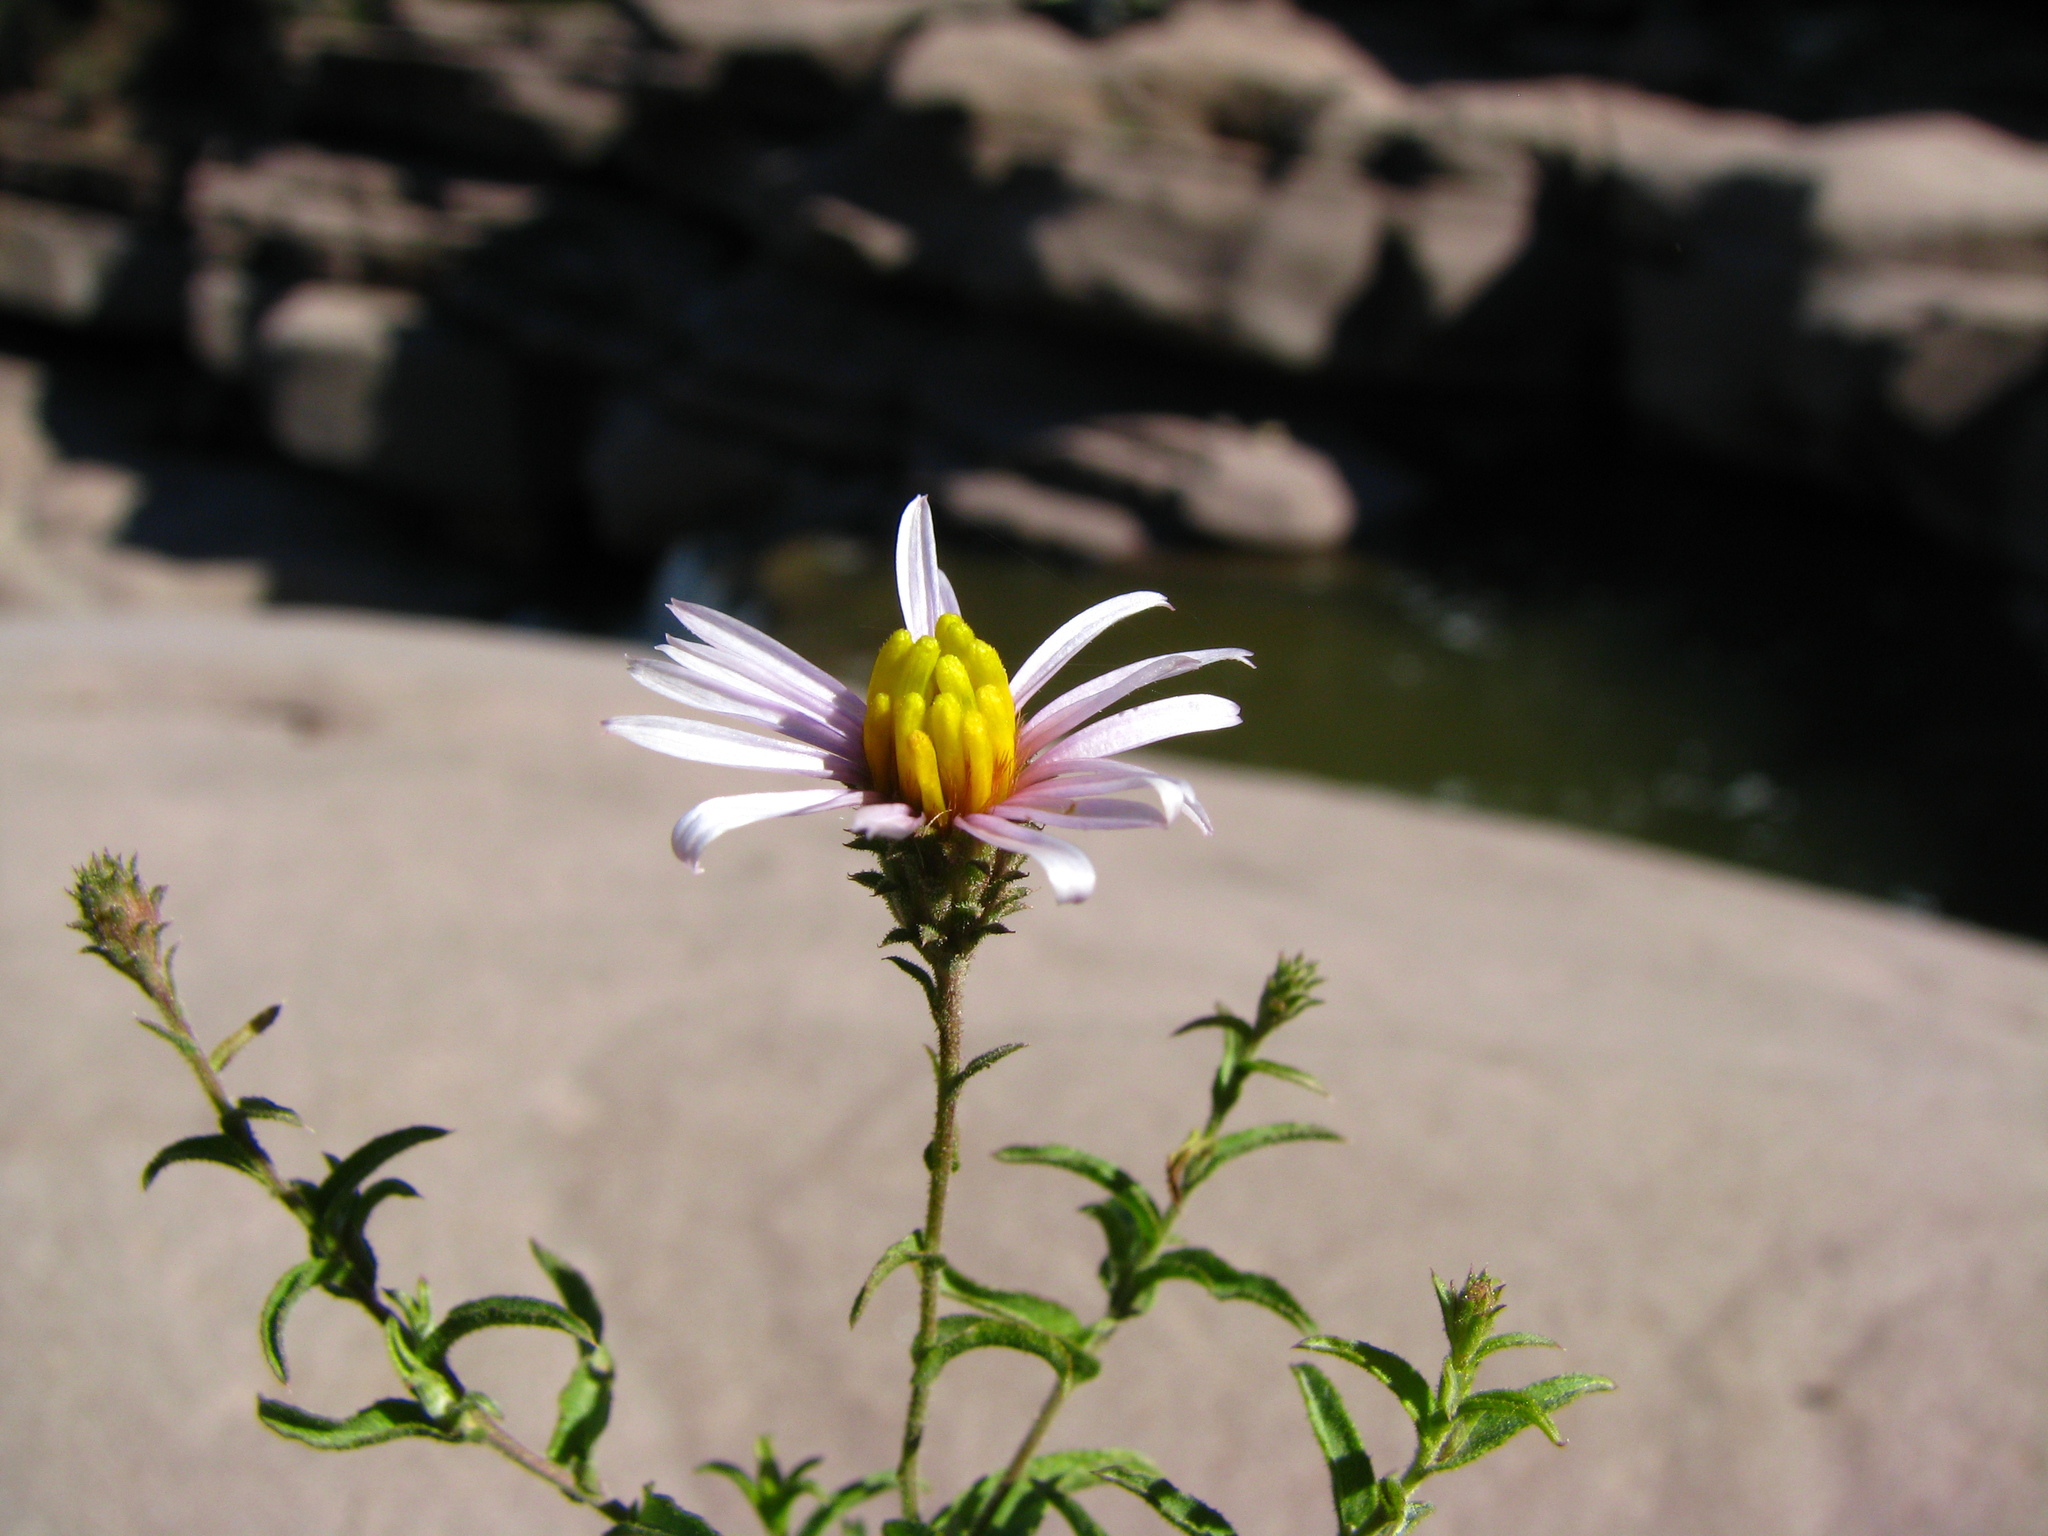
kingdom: Plantae
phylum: Tracheophyta
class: Magnoliopsida
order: Asterales
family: Asteraceae
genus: Corethrogyne
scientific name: Corethrogyne filaginifolia
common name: Sand-aster
